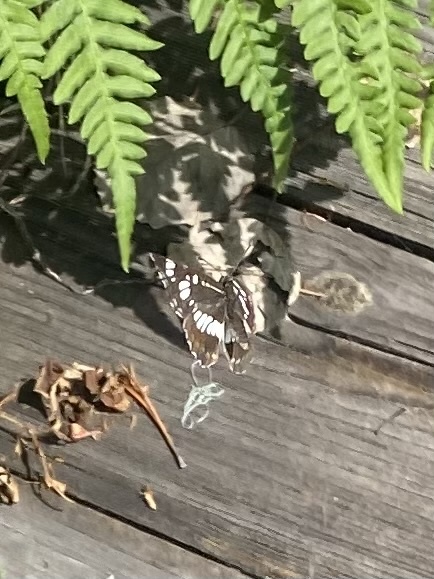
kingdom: Animalia
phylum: Arthropoda
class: Insecta
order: Lepidoptera
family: Nymphalidae
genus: Neptis
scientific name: Neptis rivularis
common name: Hungarian glider
